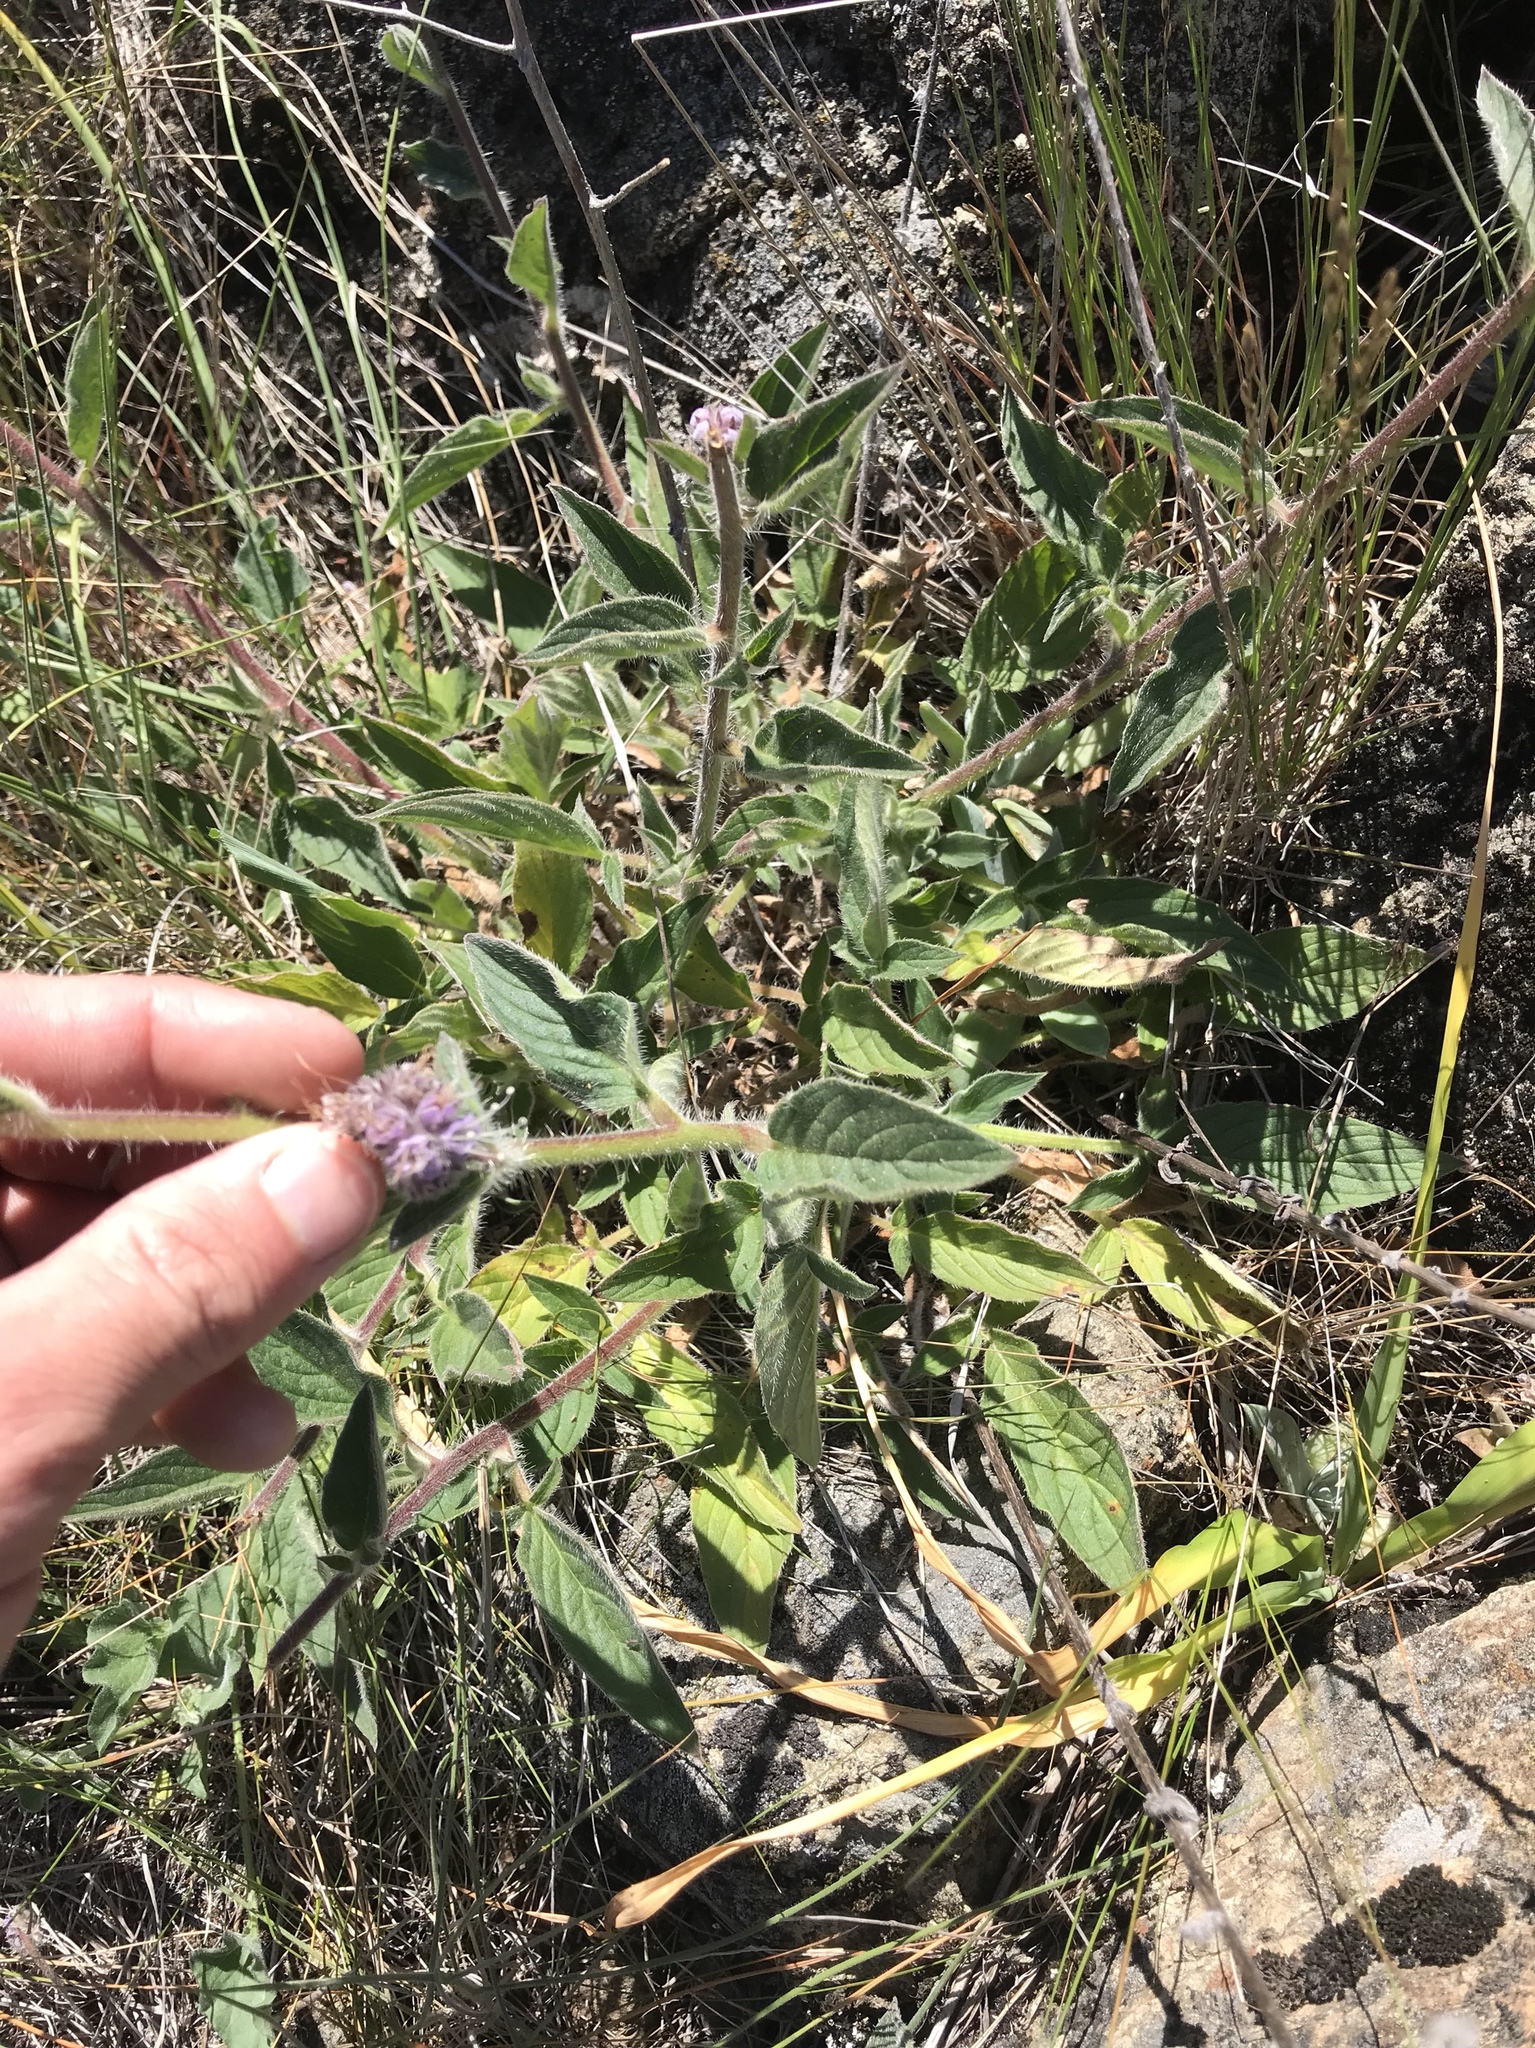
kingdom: Plantae
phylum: Tracheophyta
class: Magnoliopsida
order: Solanales
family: Convolvulaceae
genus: Calystegia
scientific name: Calystegia collina
